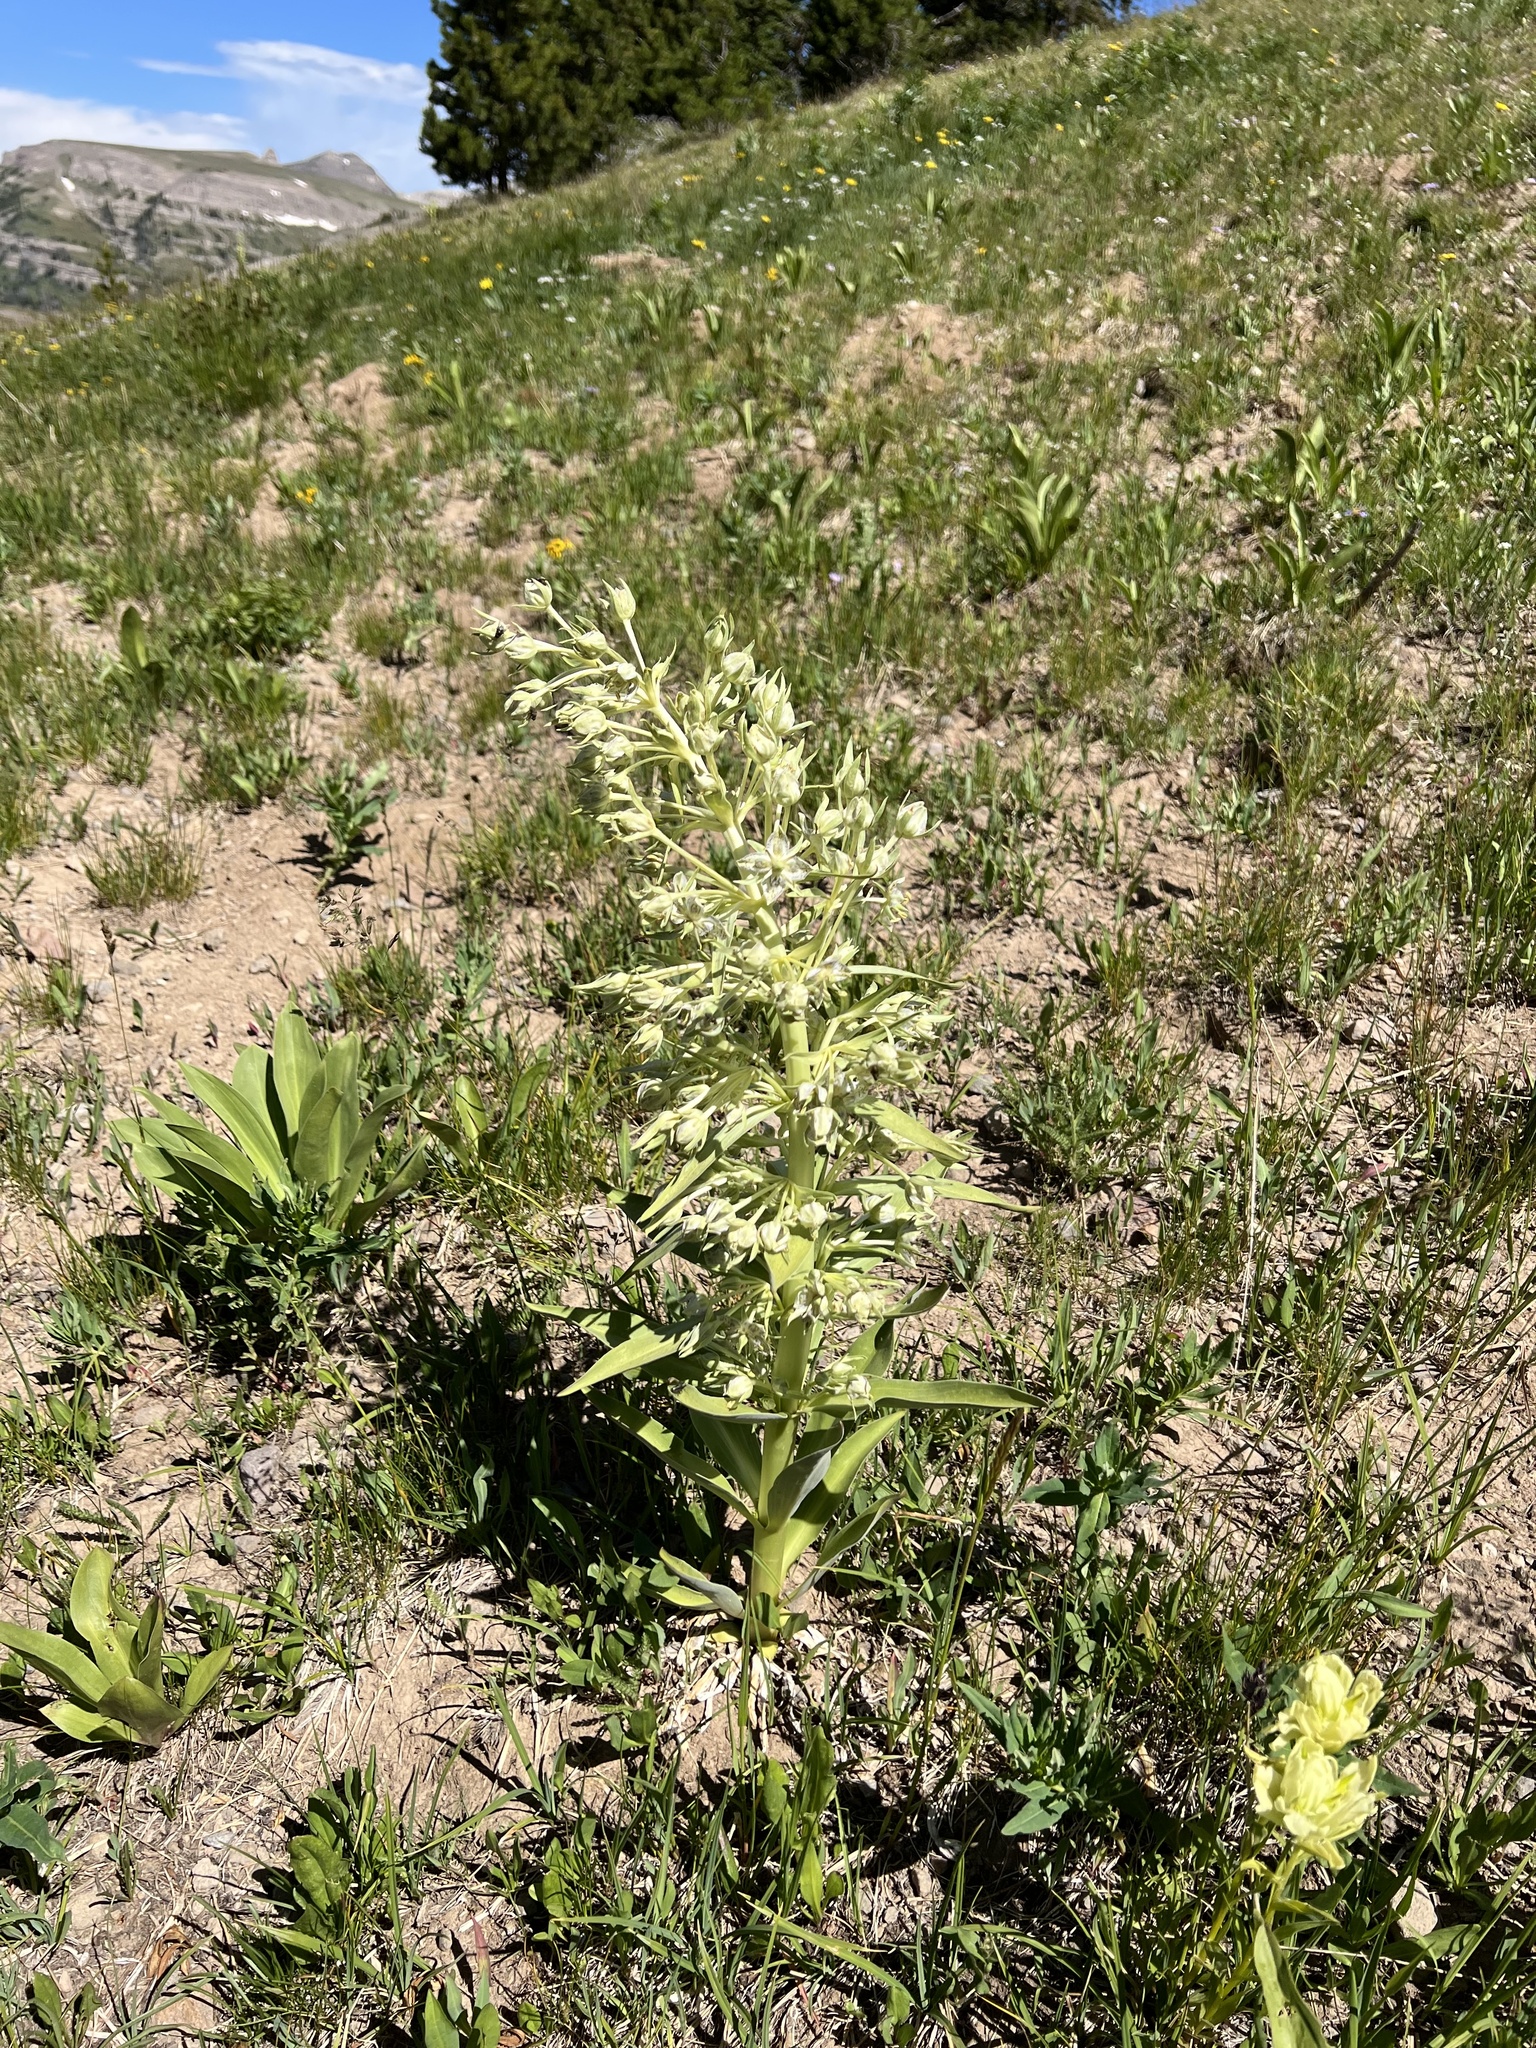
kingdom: Plantae
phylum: Tracheophyta
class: Magnoliopsida
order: Gentianales
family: Gentianaceae
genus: Frasera
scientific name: Frasera speciosa
